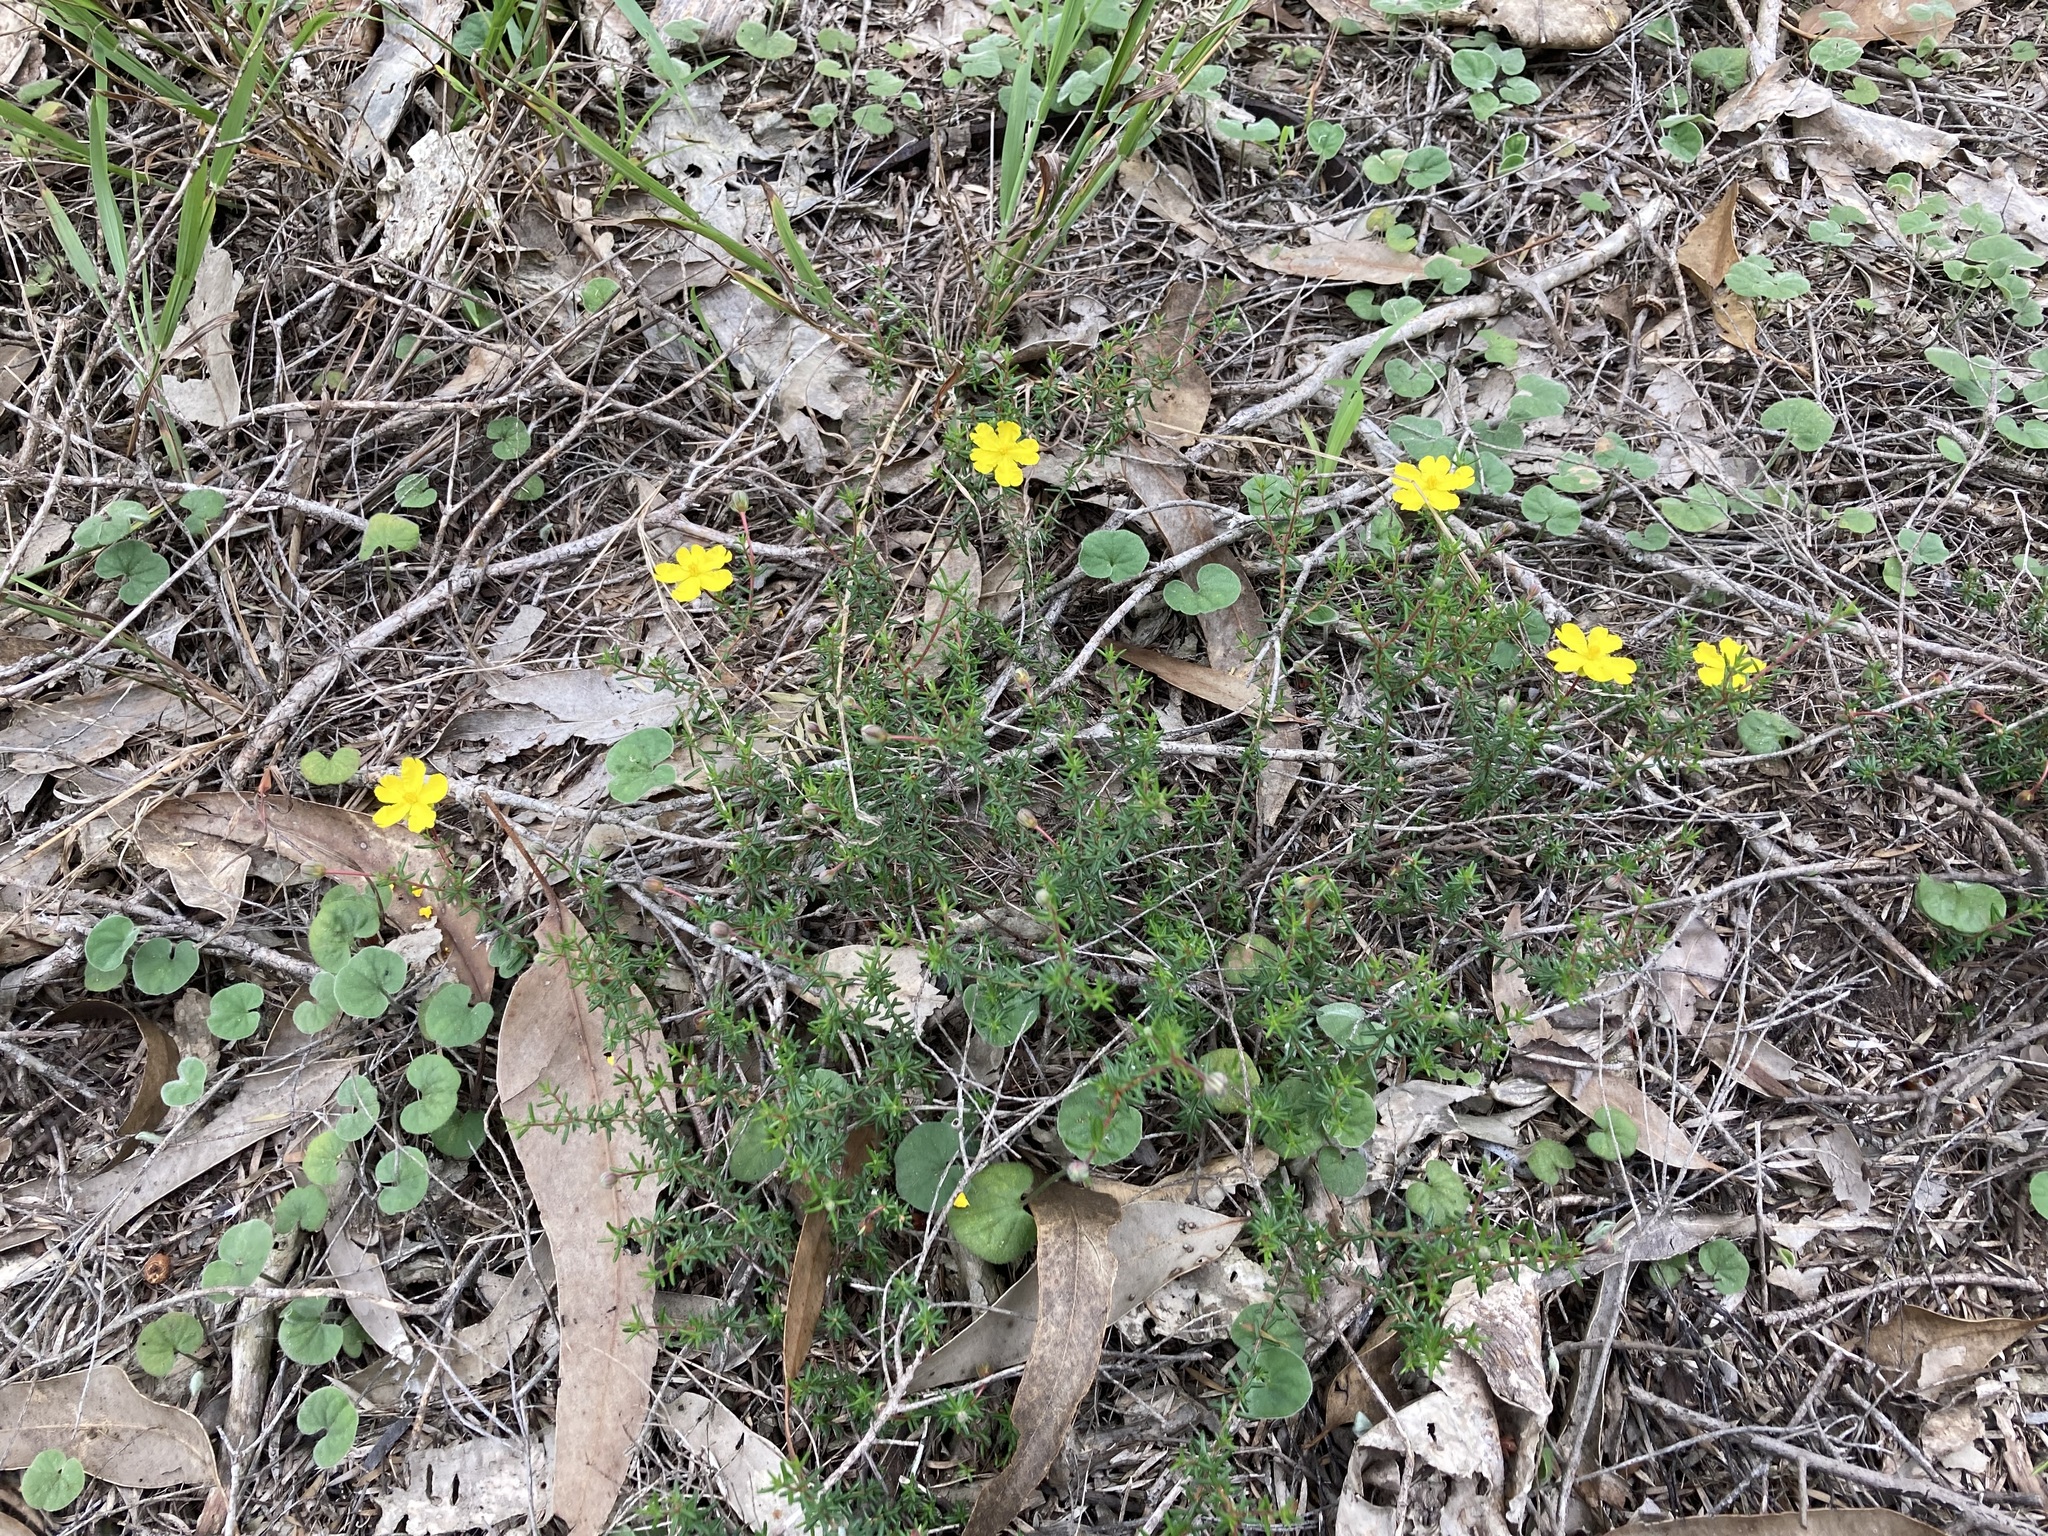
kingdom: Plantae
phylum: Tracheophyta
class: Magnoliopsida
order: Dilleniales
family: Dilleniaceae
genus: Hibbertia
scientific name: Hibbertia pedunculata
